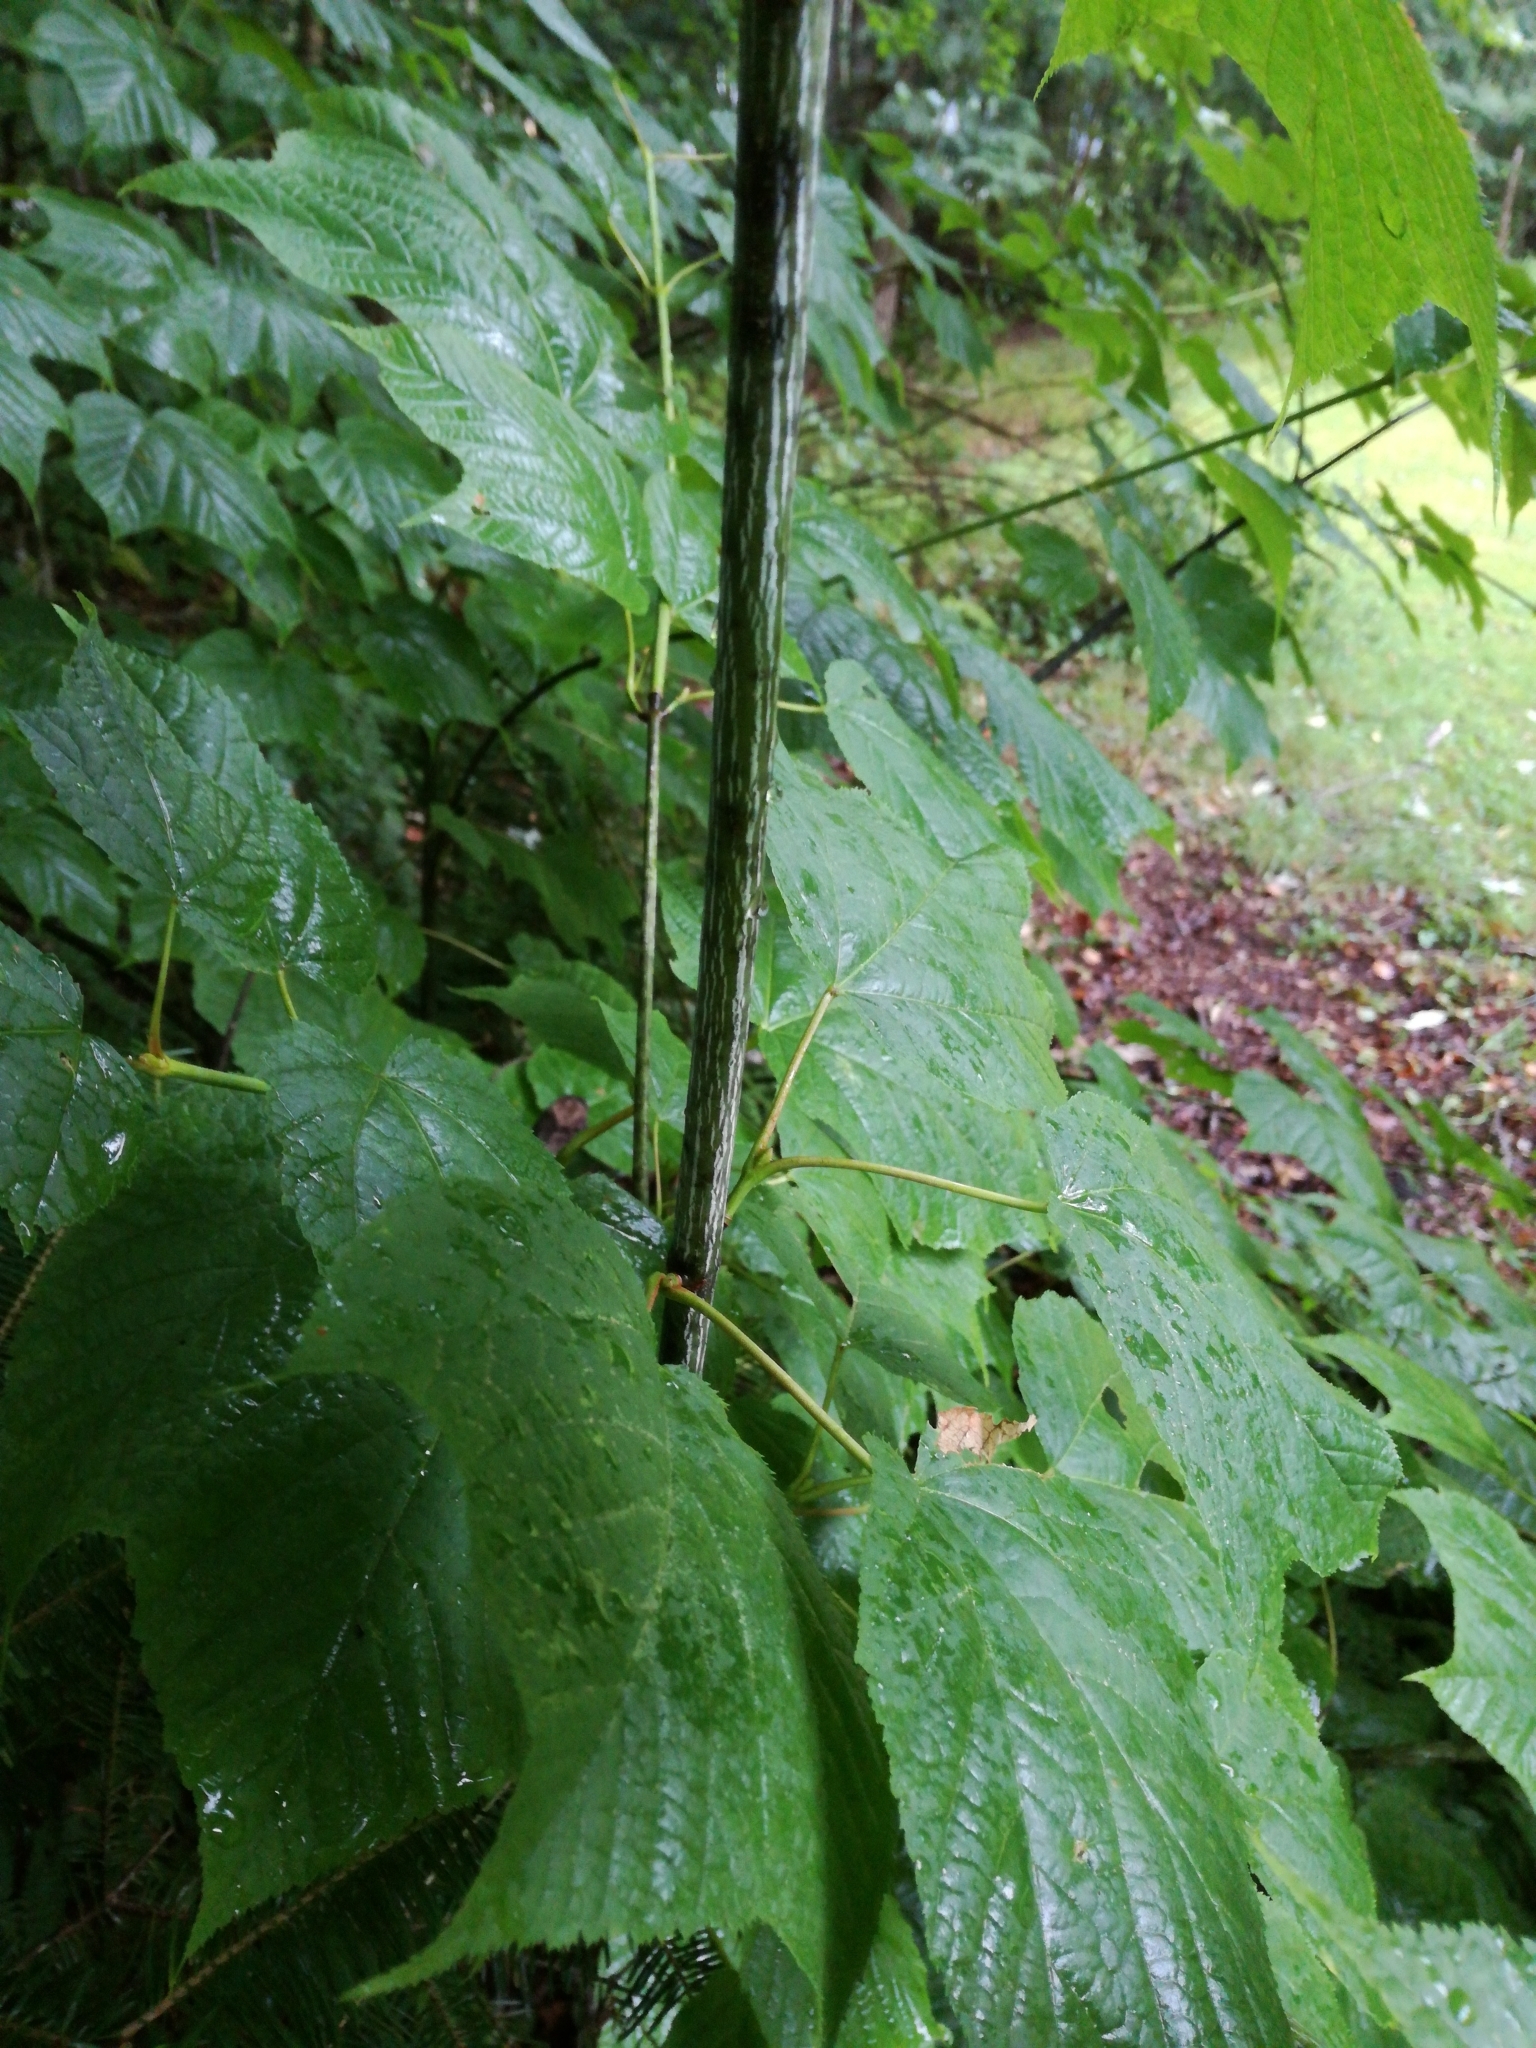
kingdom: Plantae
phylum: Tracheophyta
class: Magnoliopsida
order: Sapindales
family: Sapindaceae
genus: Acer
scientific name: Acer pensylvanicum
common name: Moosewood
